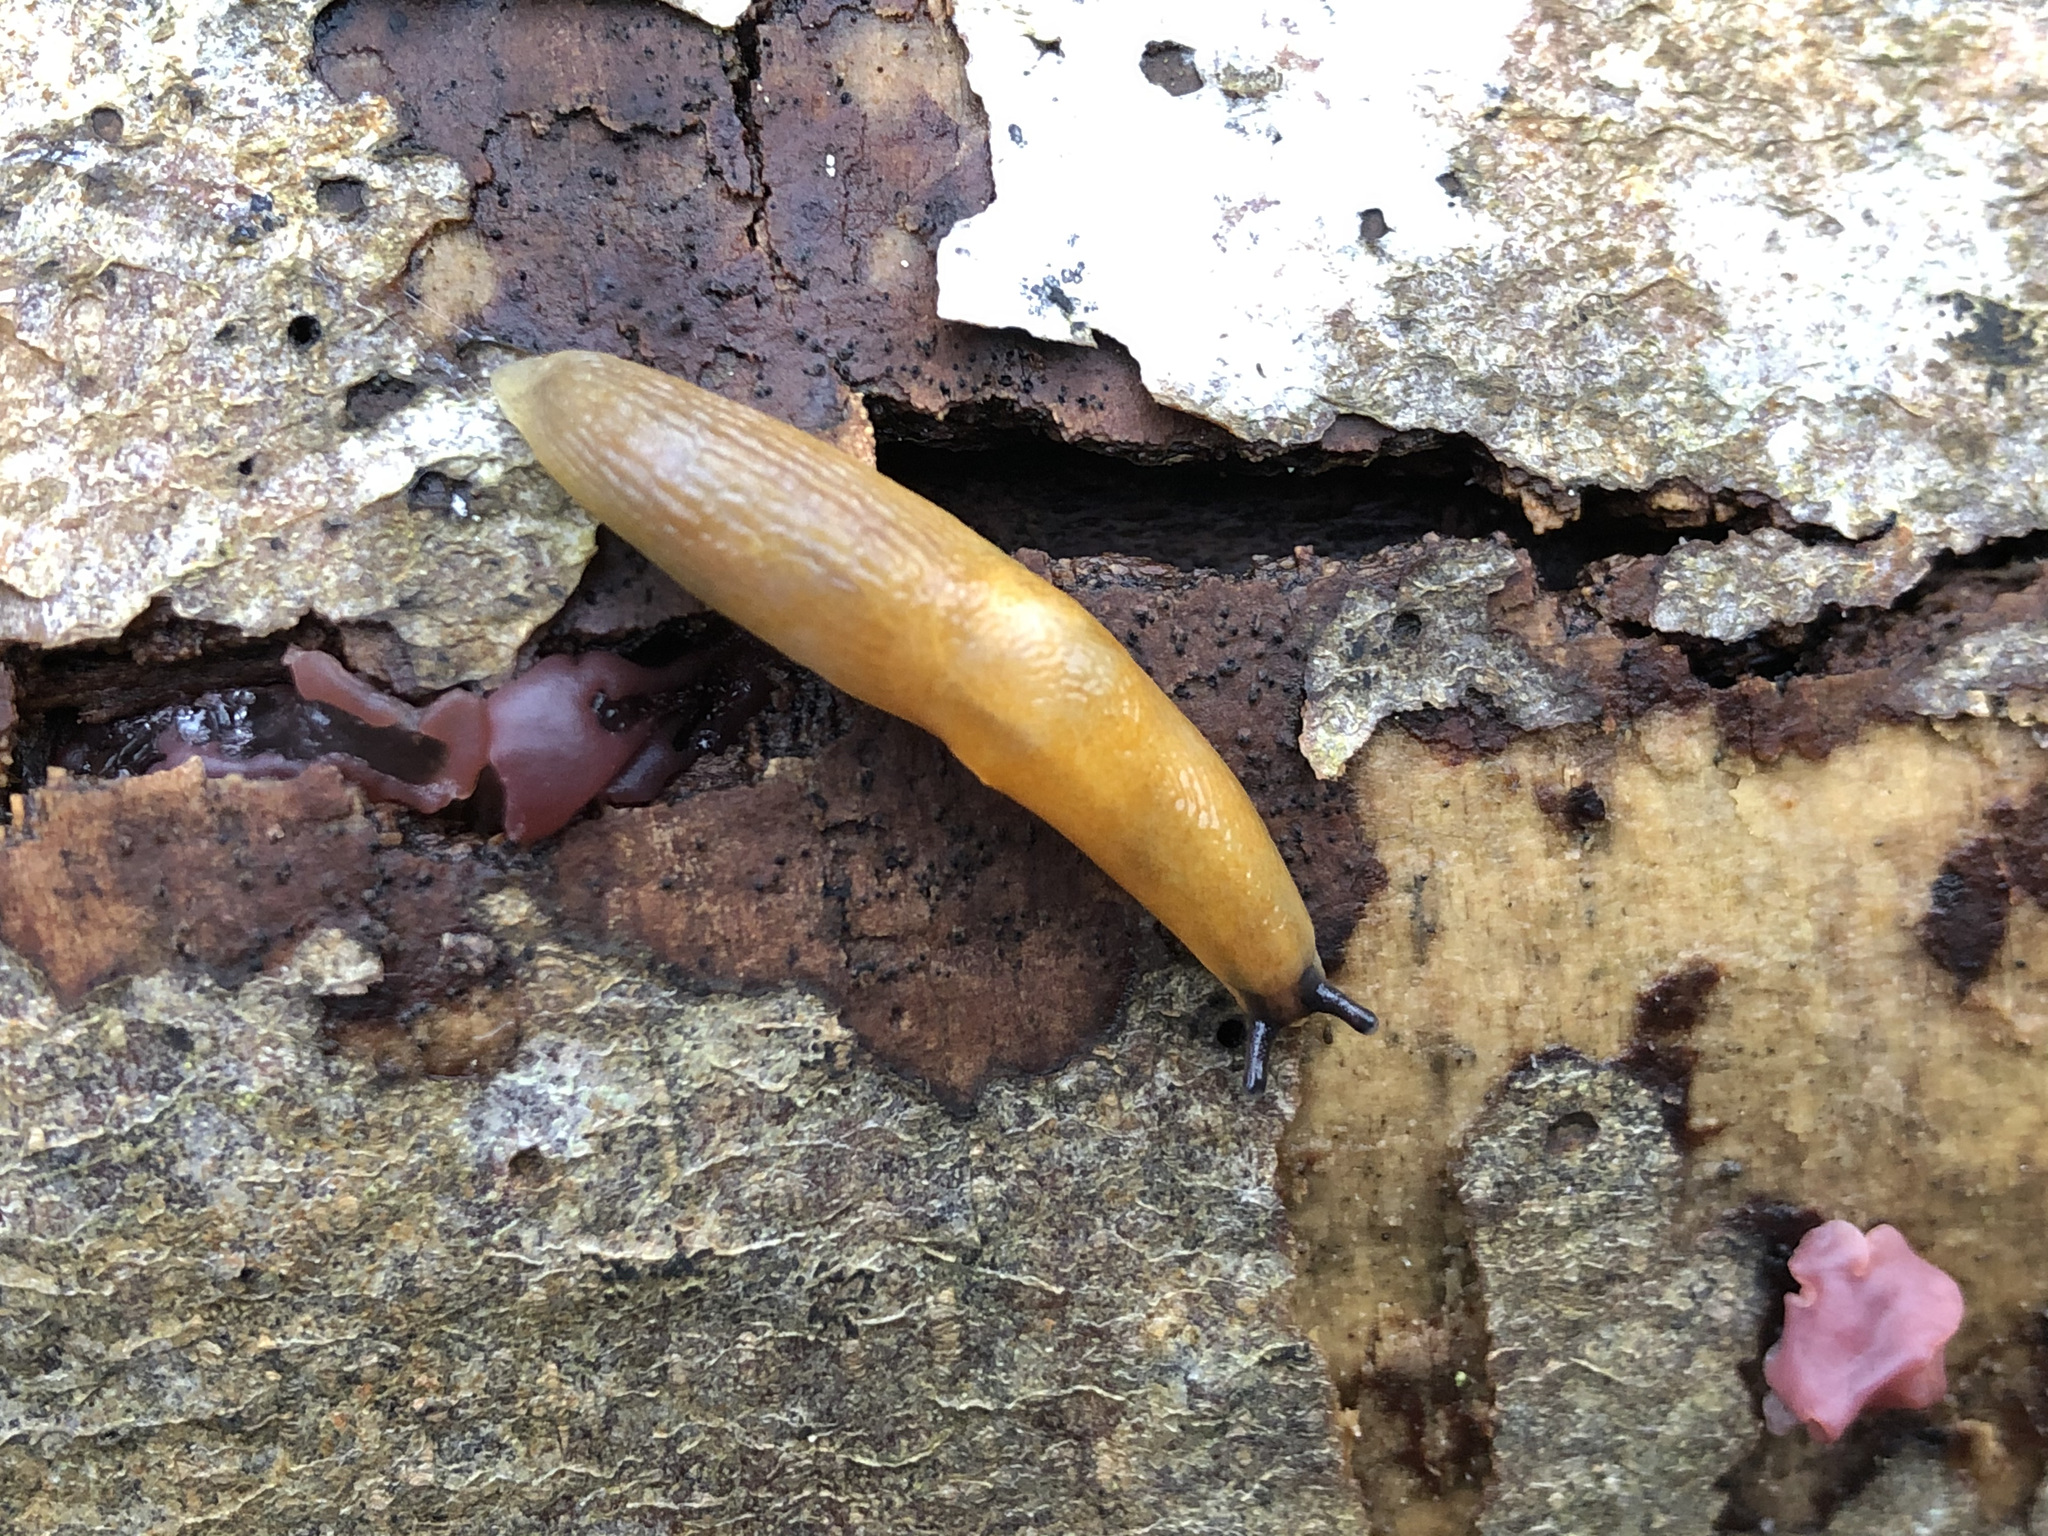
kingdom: Animalia
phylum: Mollusca
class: Gastropoda
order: Stylommatophora
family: Limacidae
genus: Malacolimax
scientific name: Malacolimax tenellus
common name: Lemon slug
